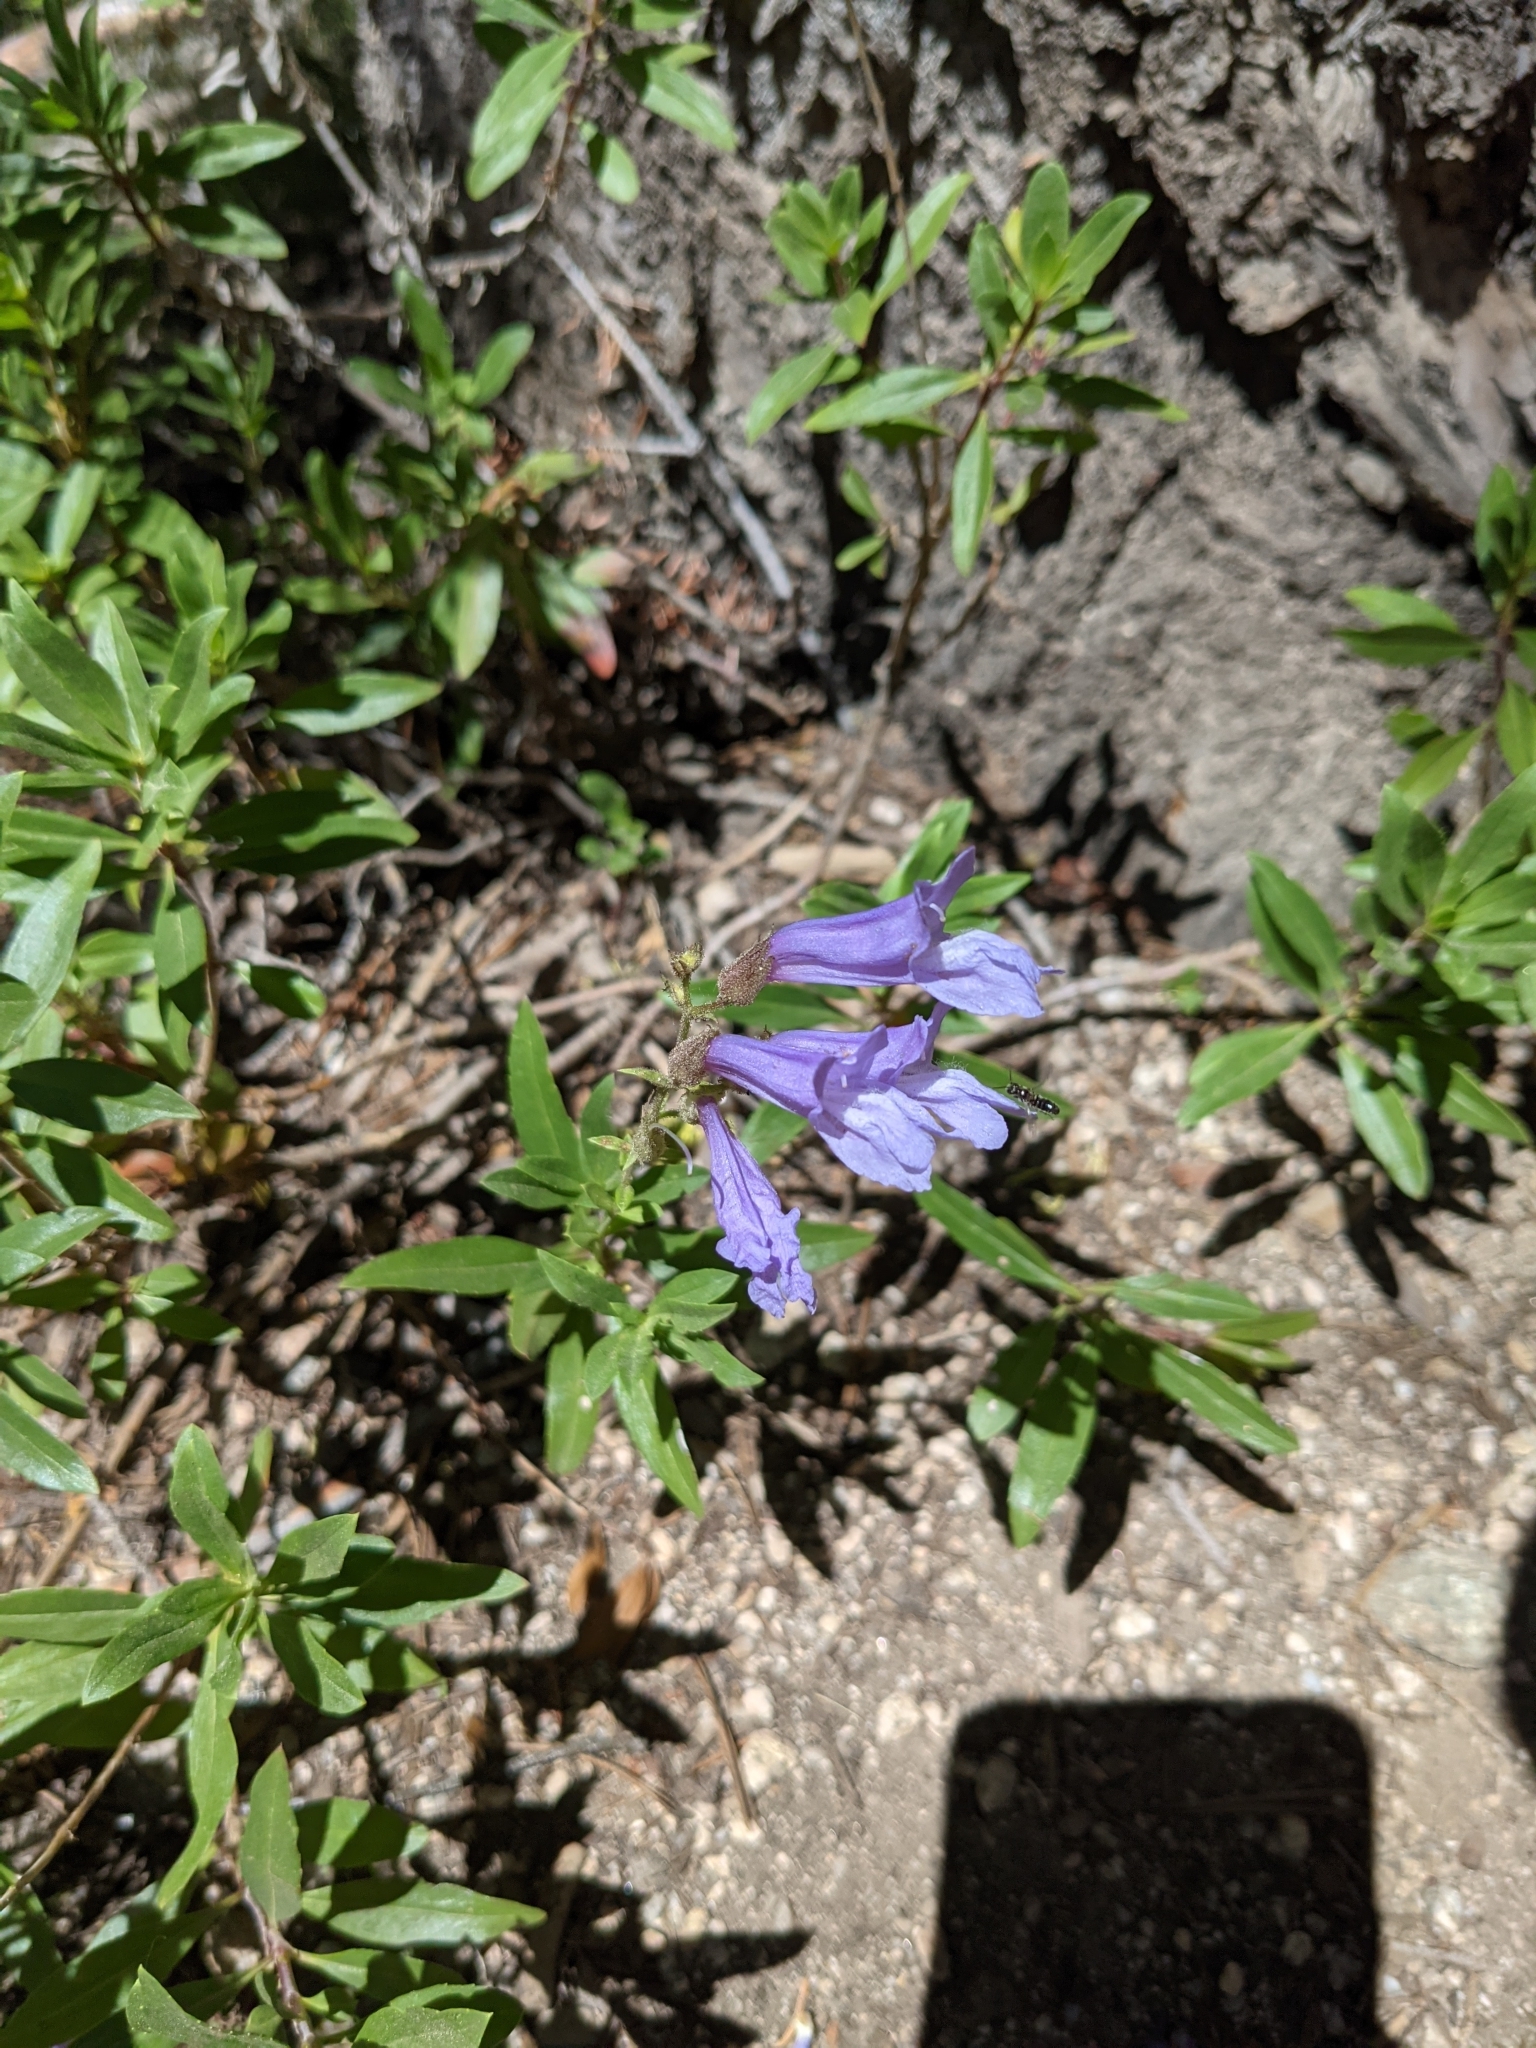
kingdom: Plantae
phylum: Tracheophyta
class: Magnoliopsida
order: Lamiales
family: Plantaginaceae
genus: Penstemon
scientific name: Penstemon fruticosus
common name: Bush penstemon
